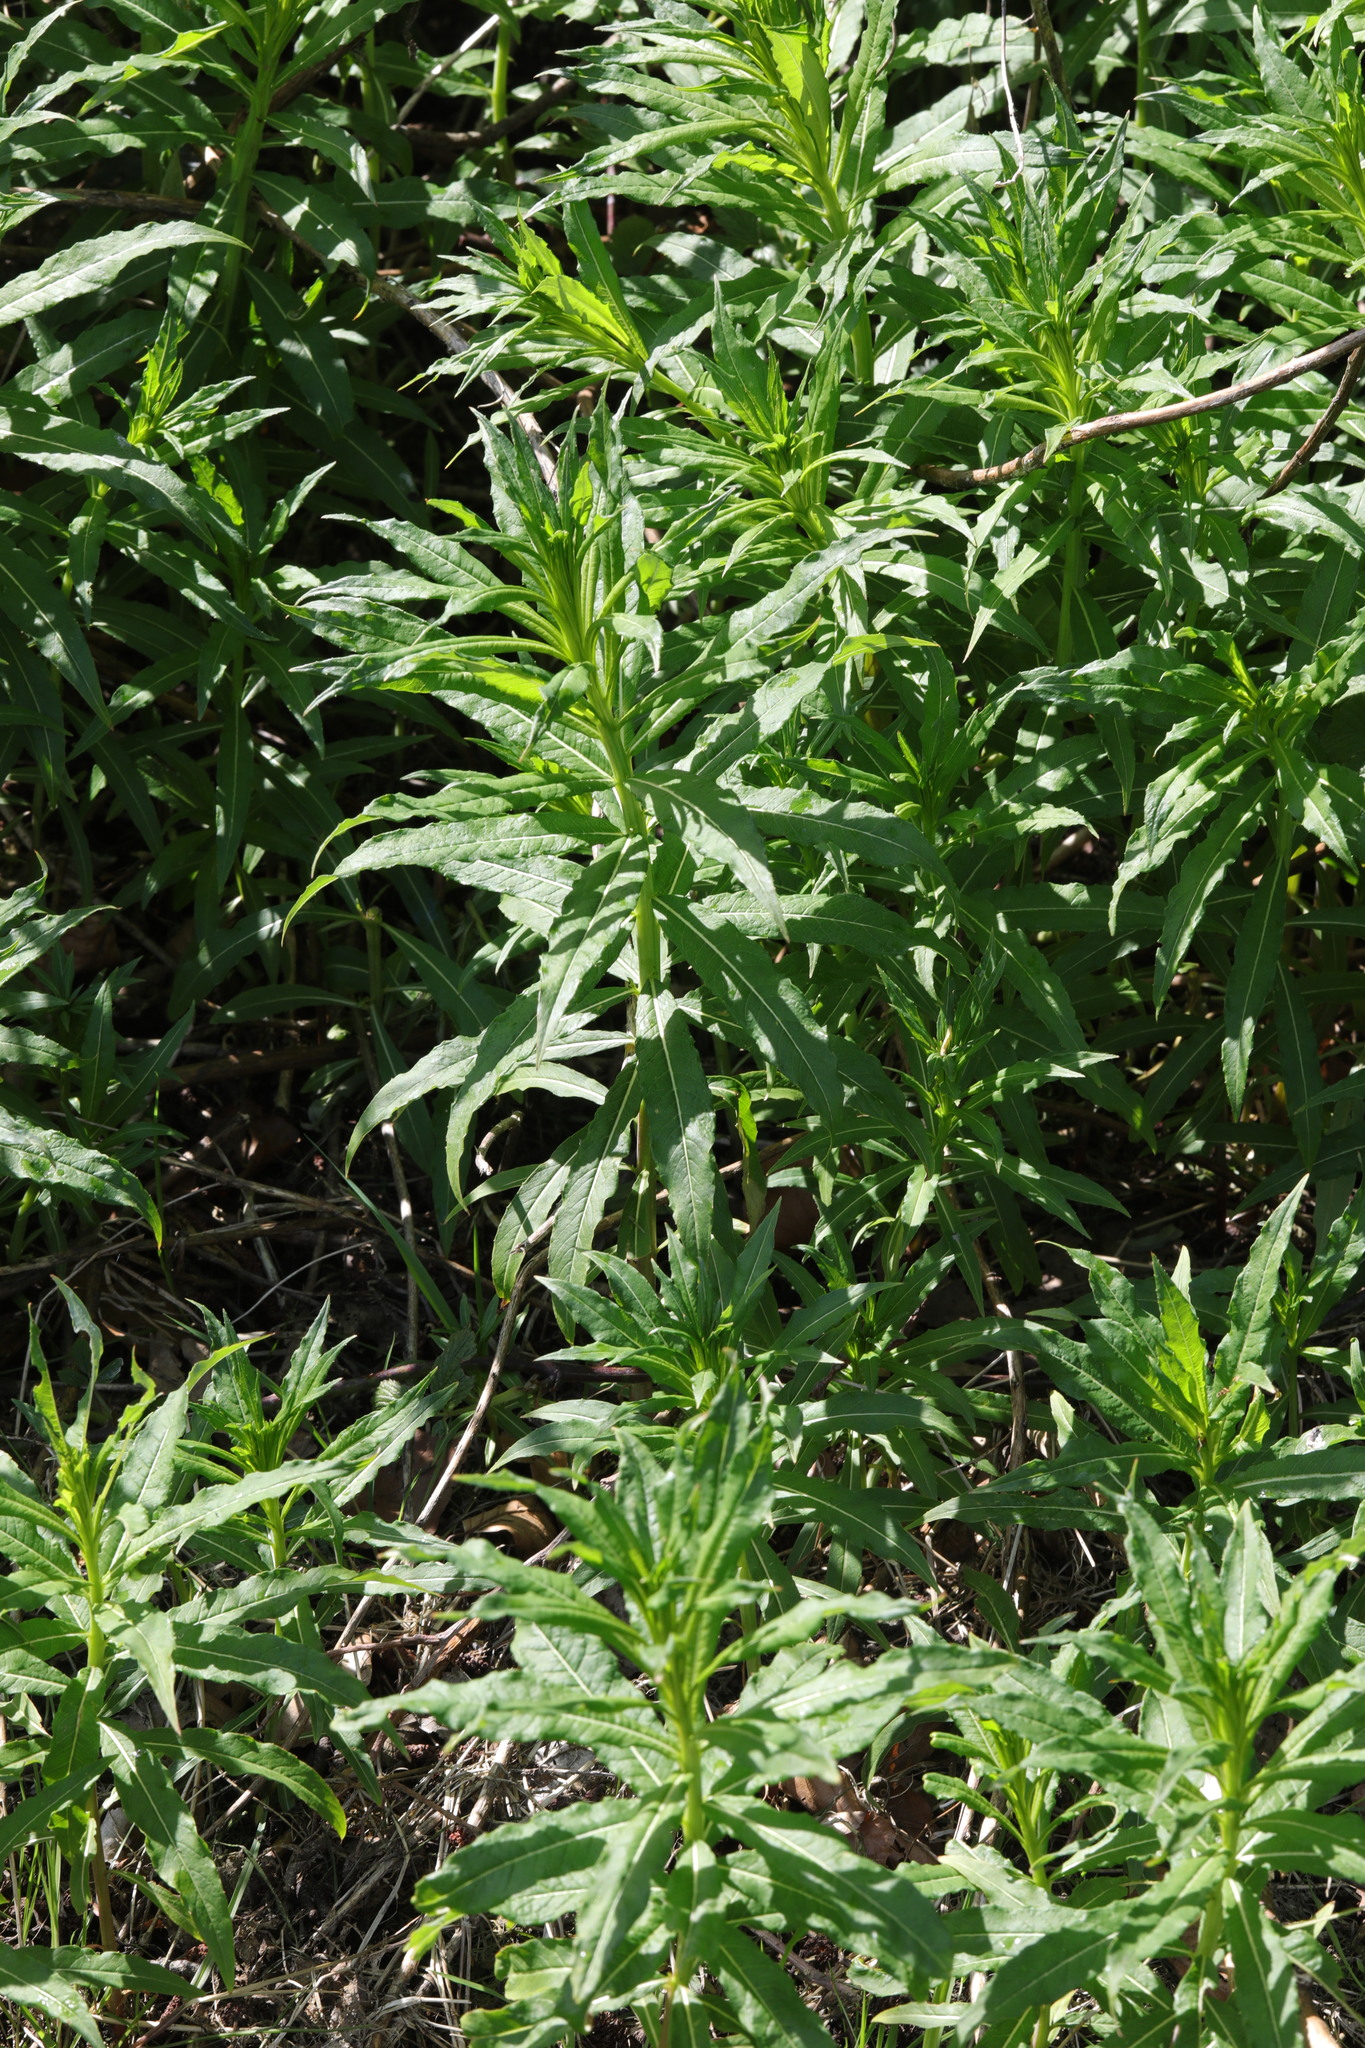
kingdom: Plantae
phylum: Tracheophyta
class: Magnoliopsida
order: Myrtales
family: Onagraceae
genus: Chamaenerion
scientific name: Chamaenerion angustifolium
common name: Fireweed
